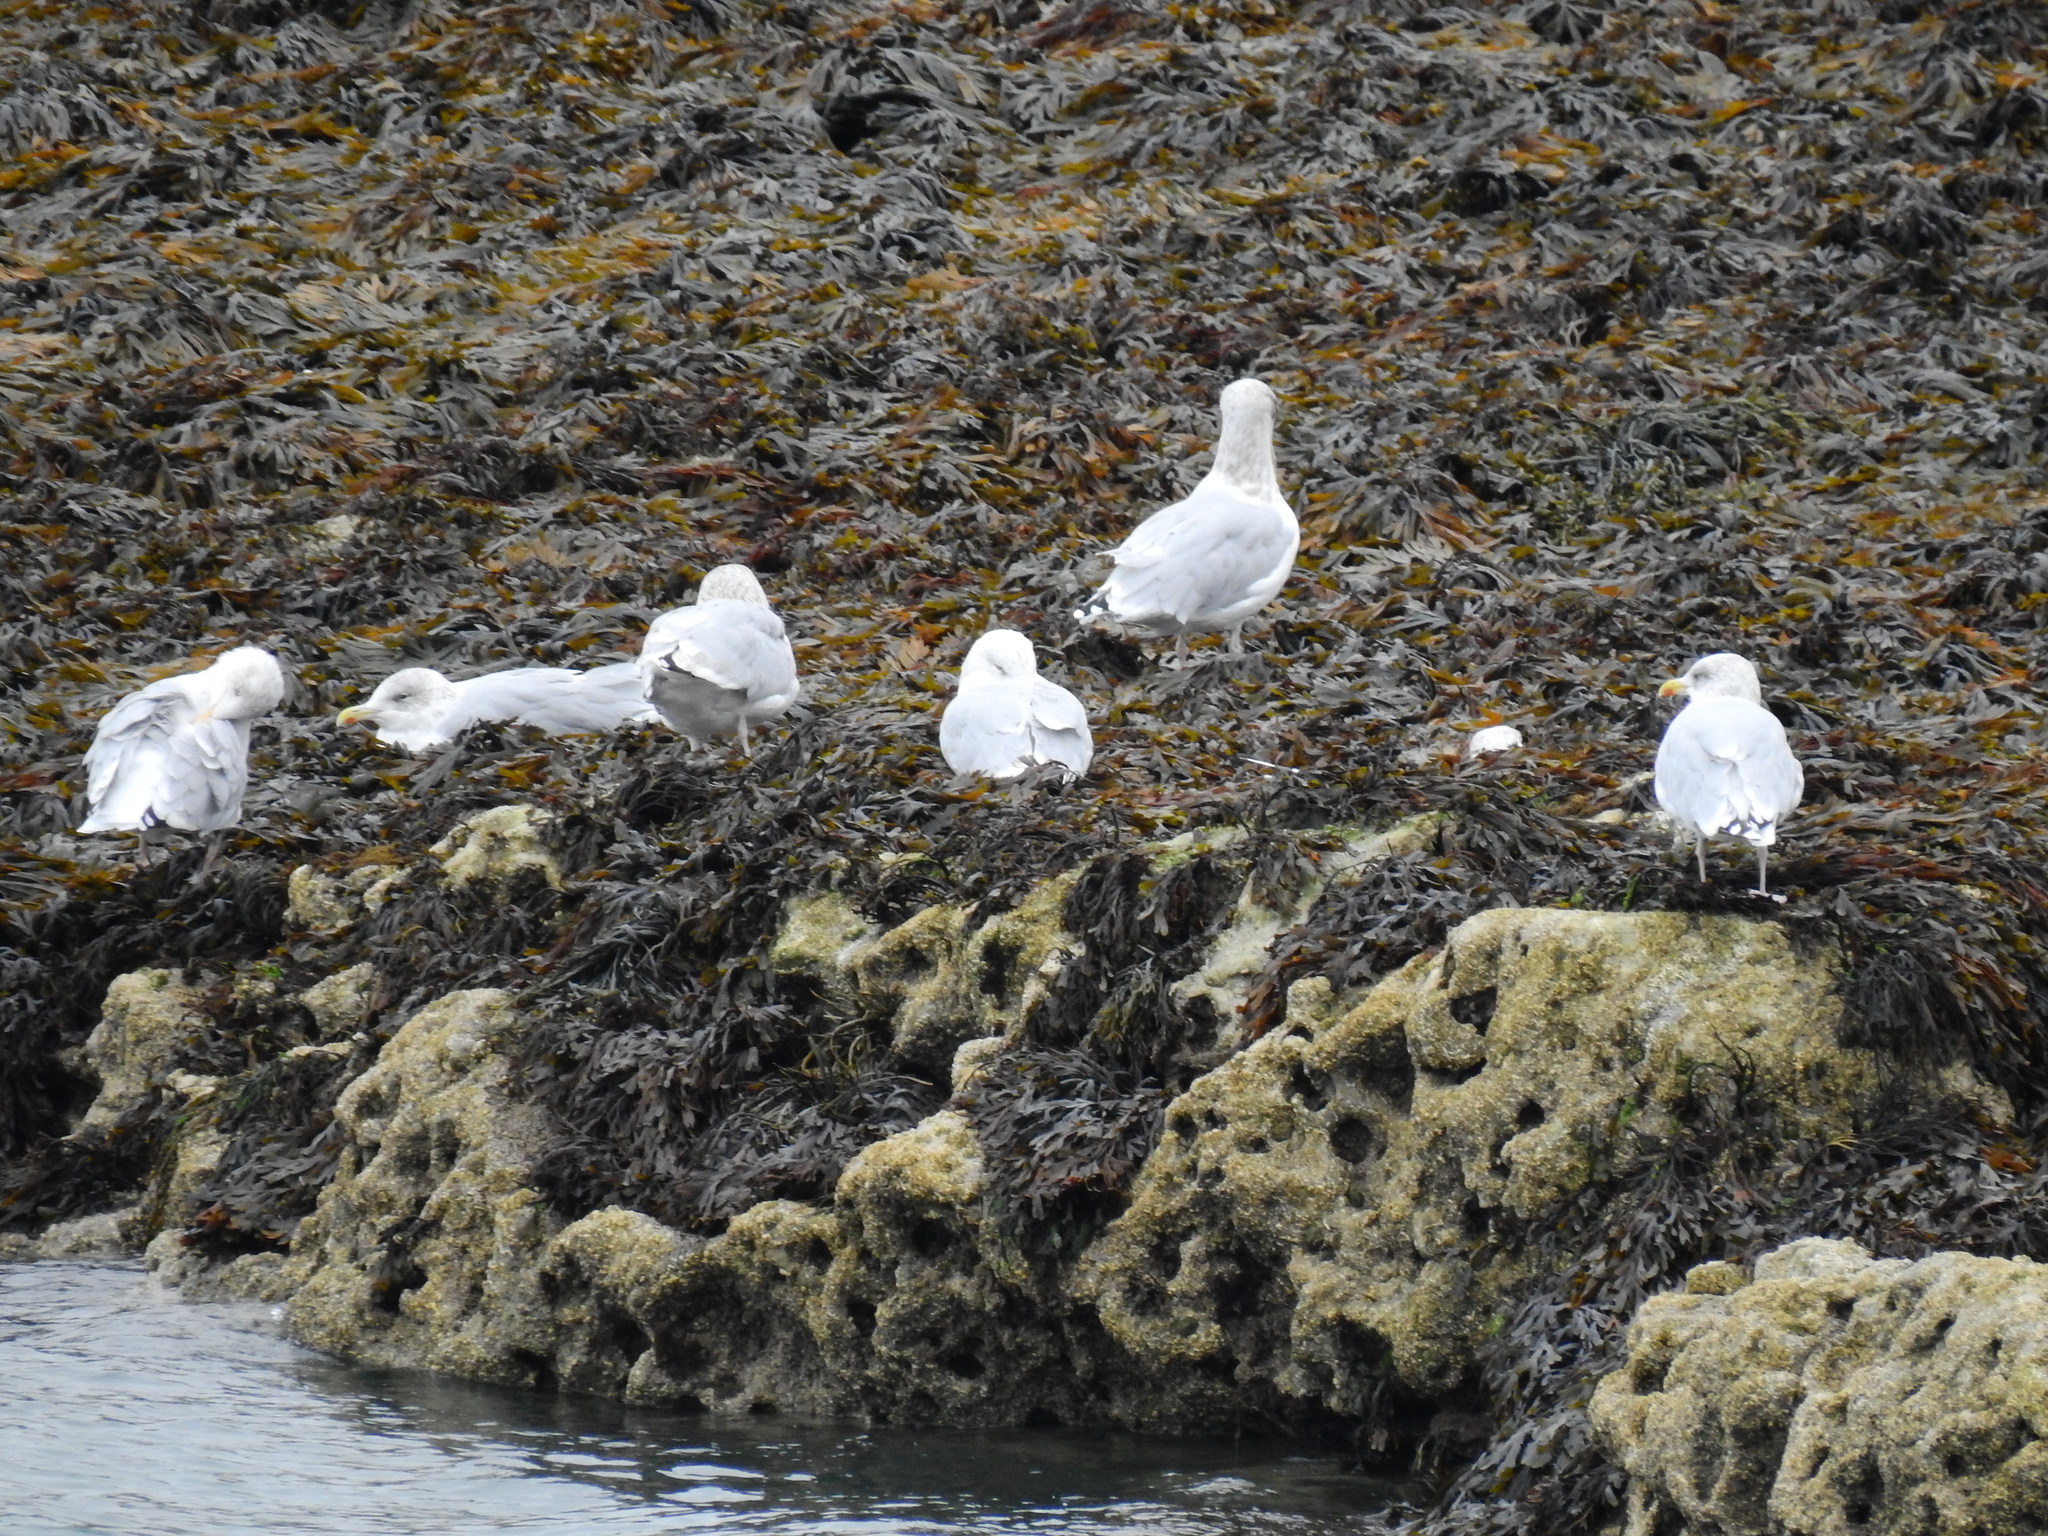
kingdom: Animalia
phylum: Chordata
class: Aves
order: Charadriiformes
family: Laridae
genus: Larus
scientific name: Larus argentatus
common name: Herring gull
